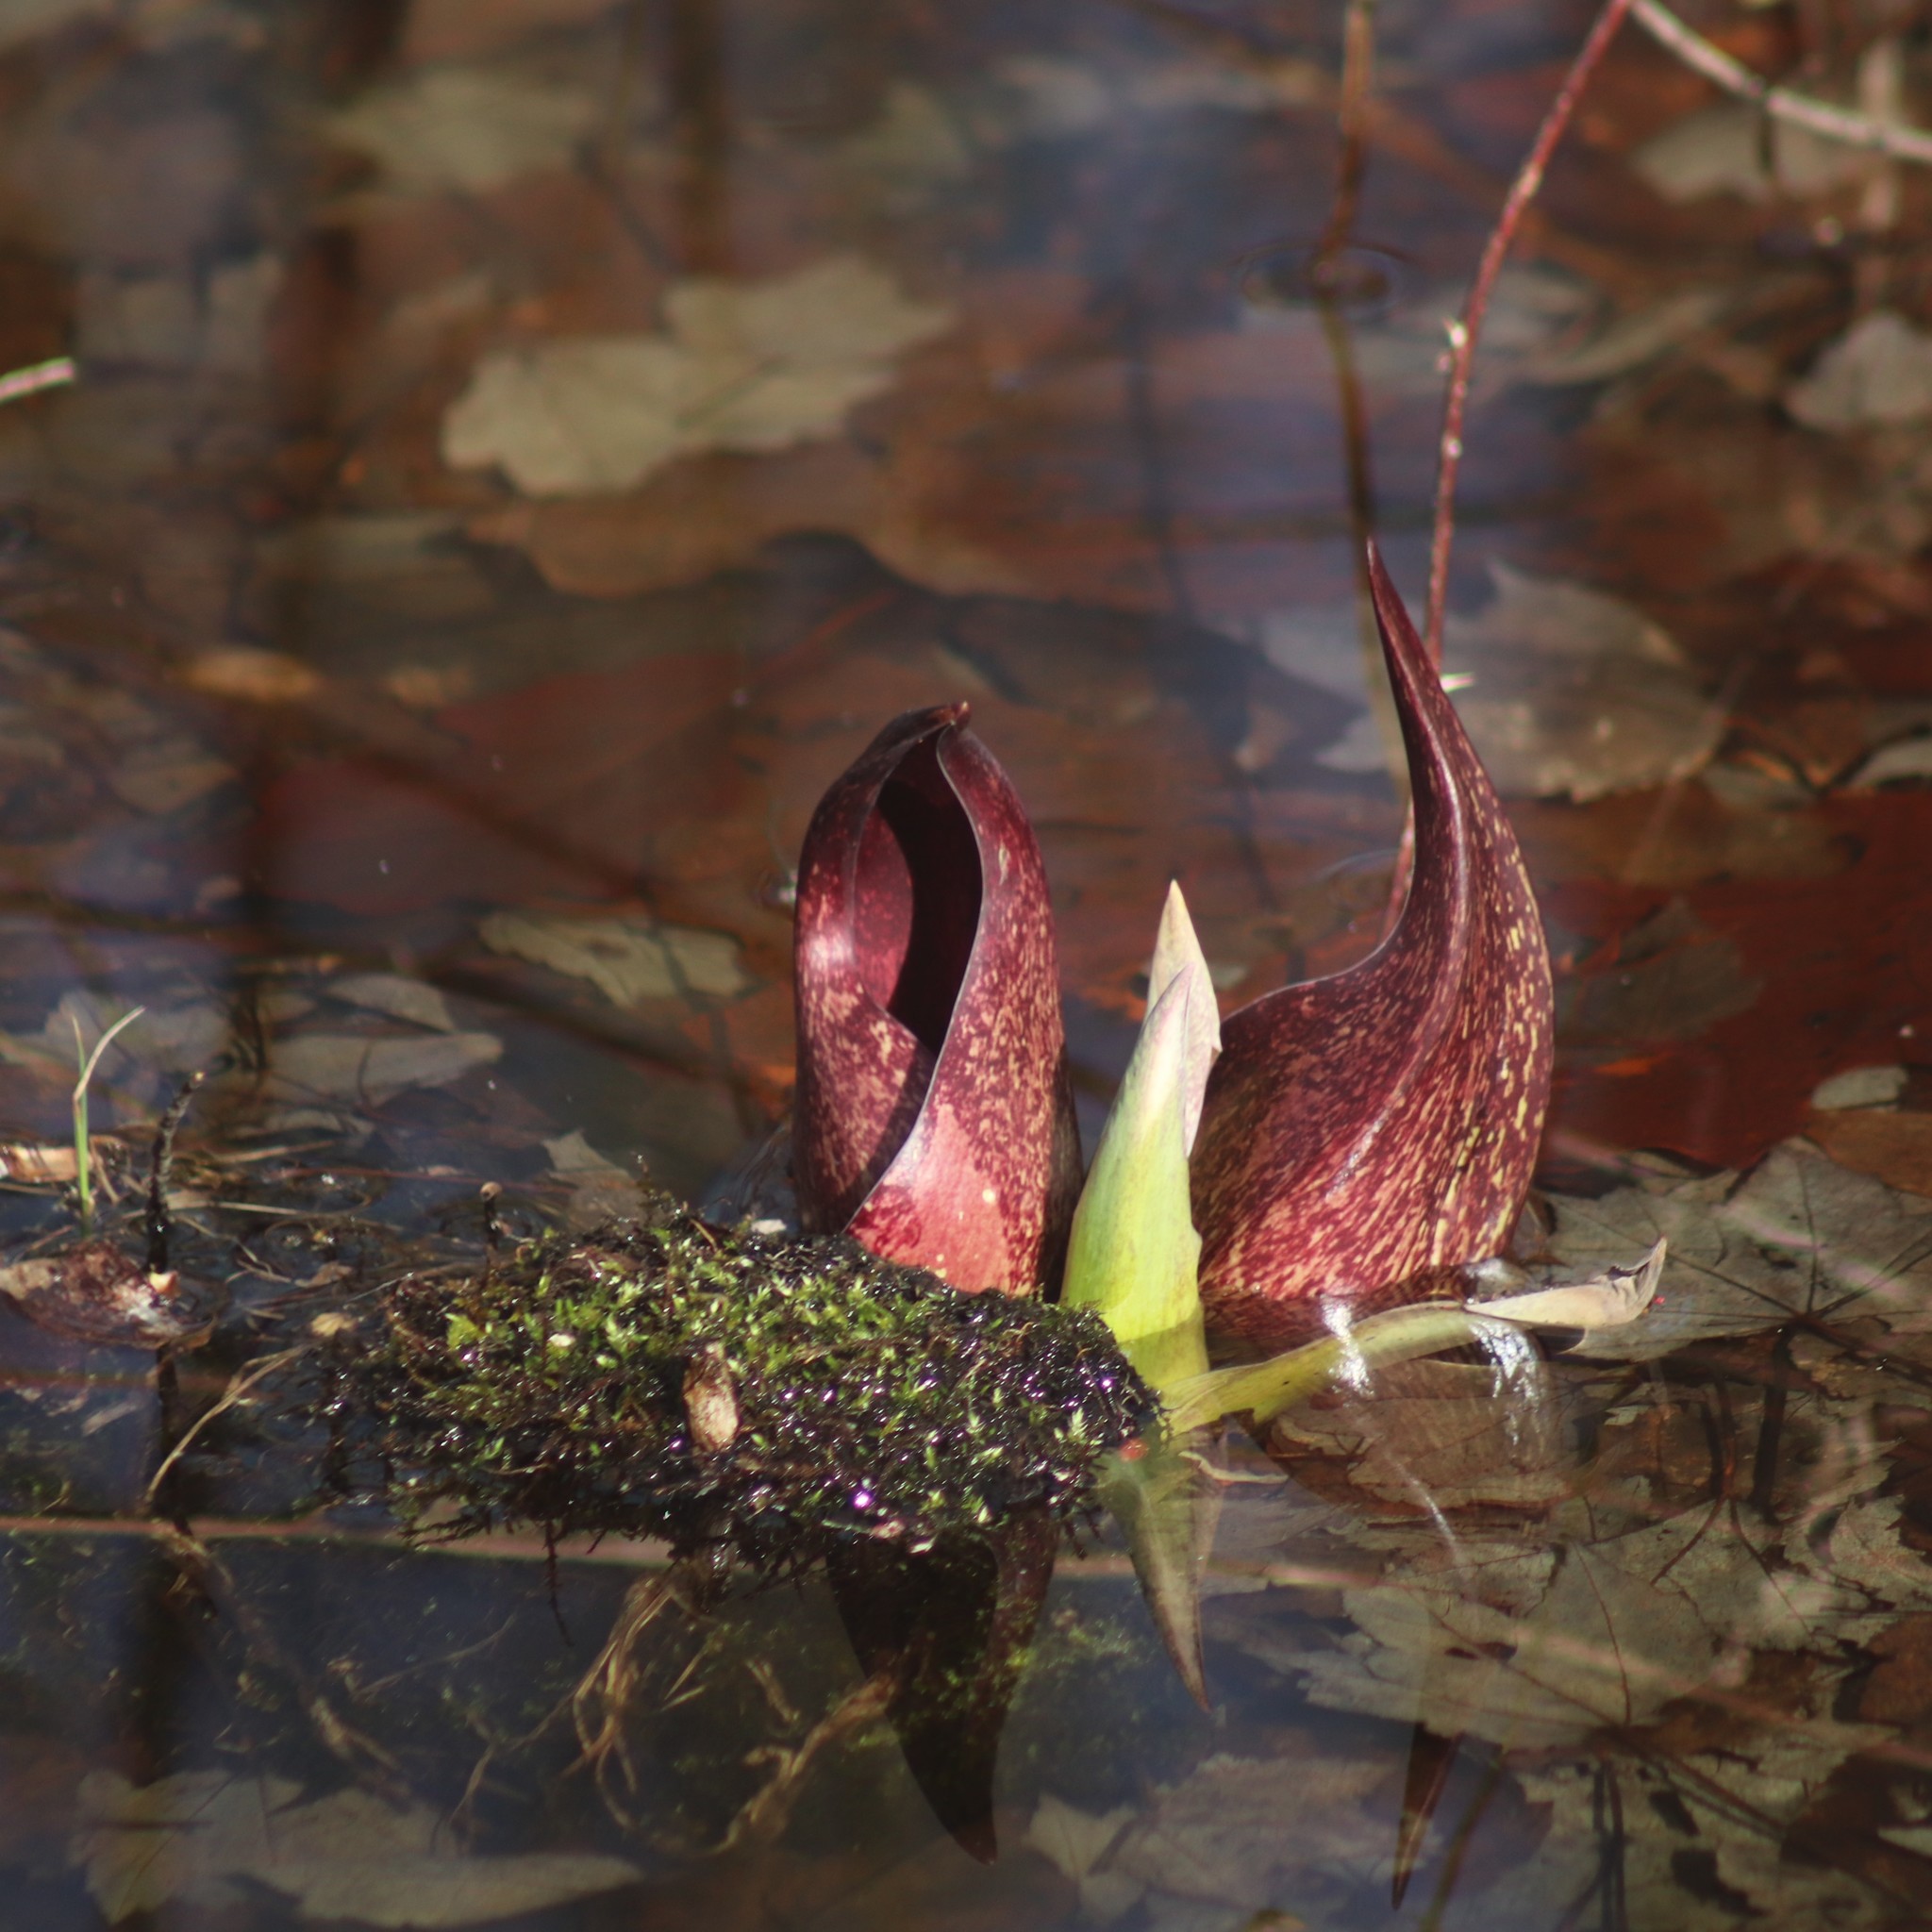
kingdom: Plantae
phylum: Tracheophyta
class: Liliopsida
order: Alismatales
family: Araceae
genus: Symplocarpus
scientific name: Symplocarpus foetidus
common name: Eastern skunk cabbage
